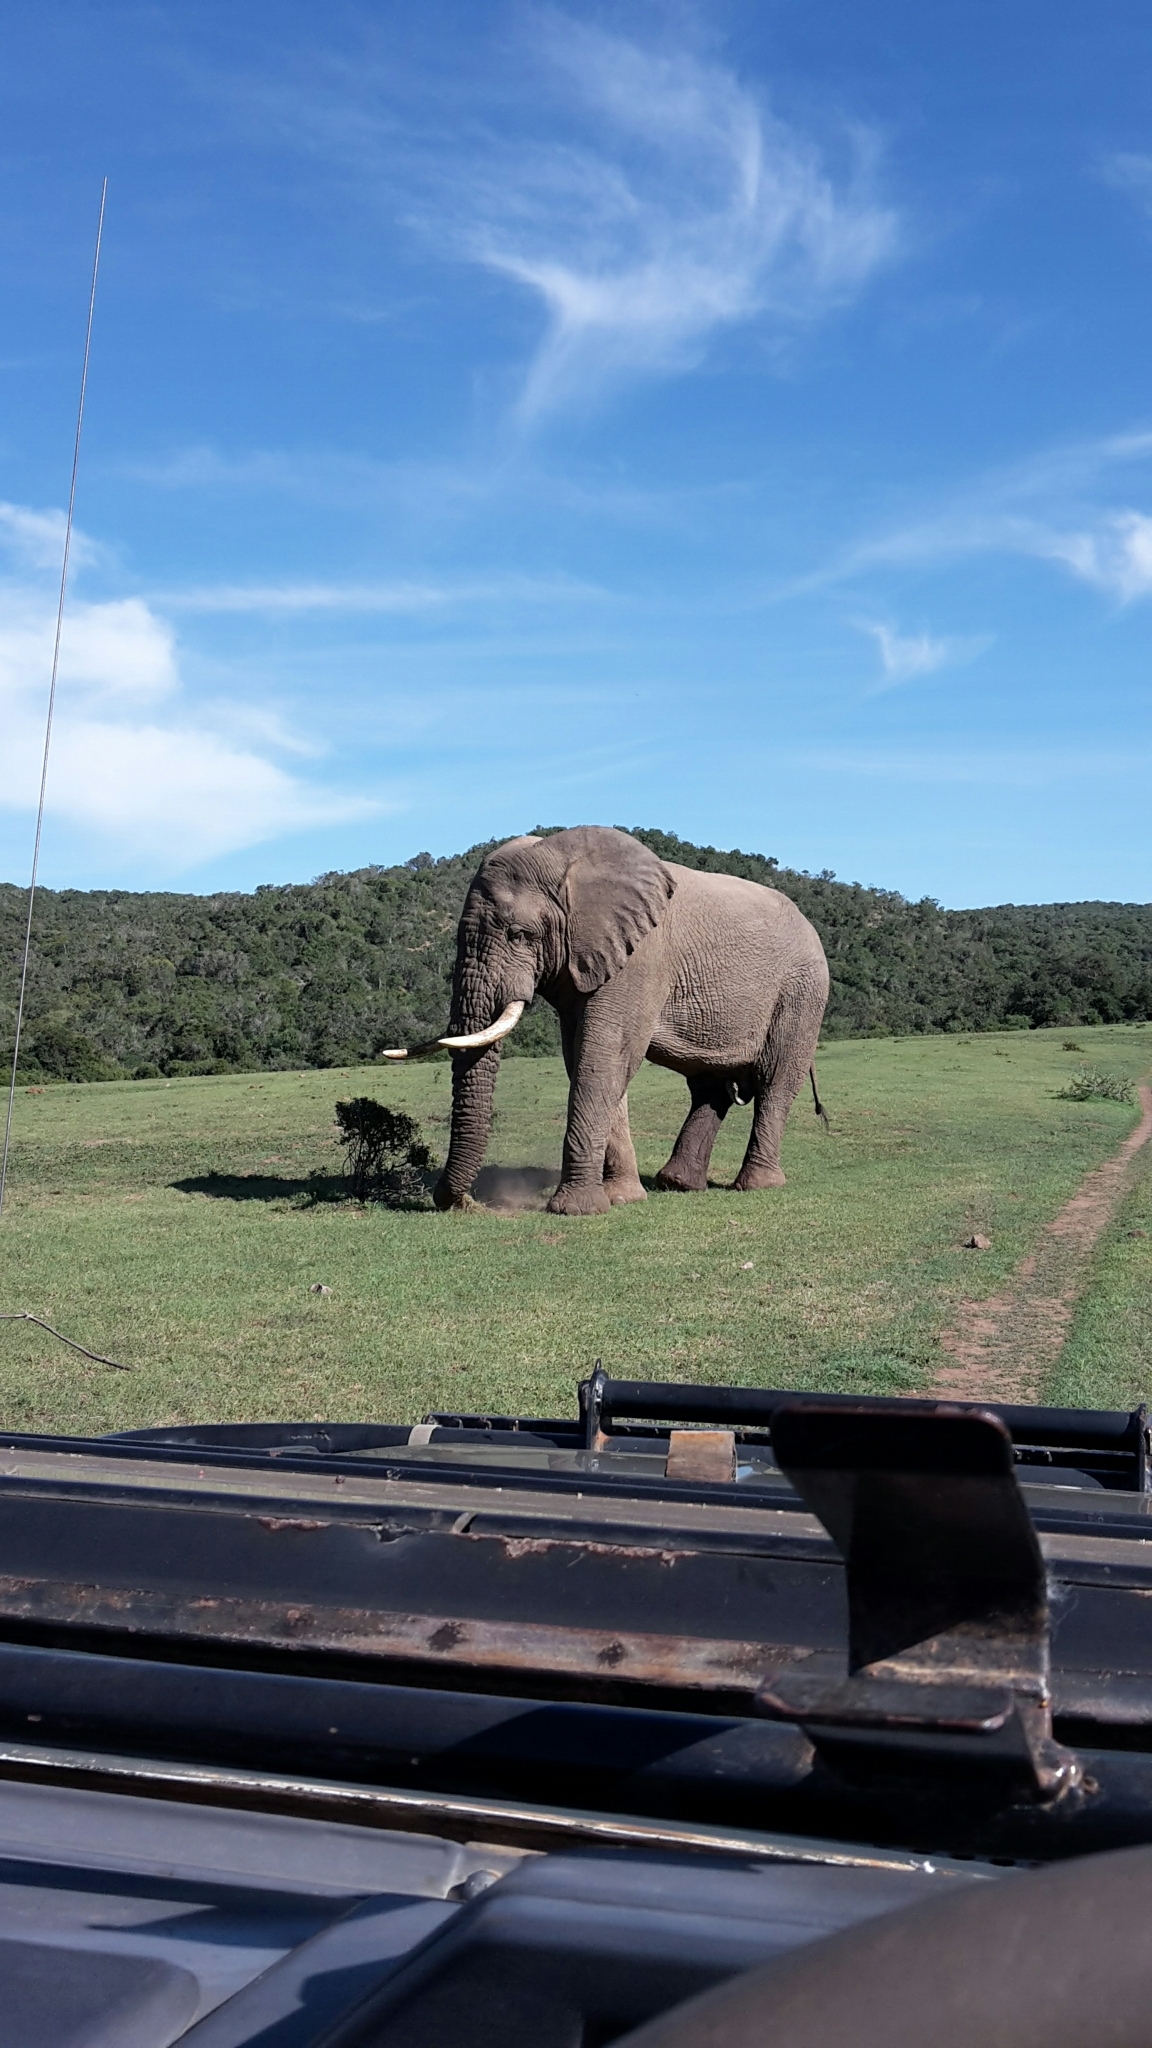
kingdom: Animalia
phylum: Chordata
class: Mammalia
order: Proboscidea
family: Elephantidae
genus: Loxodonta
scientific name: Loxodonta africana
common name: African elephant
